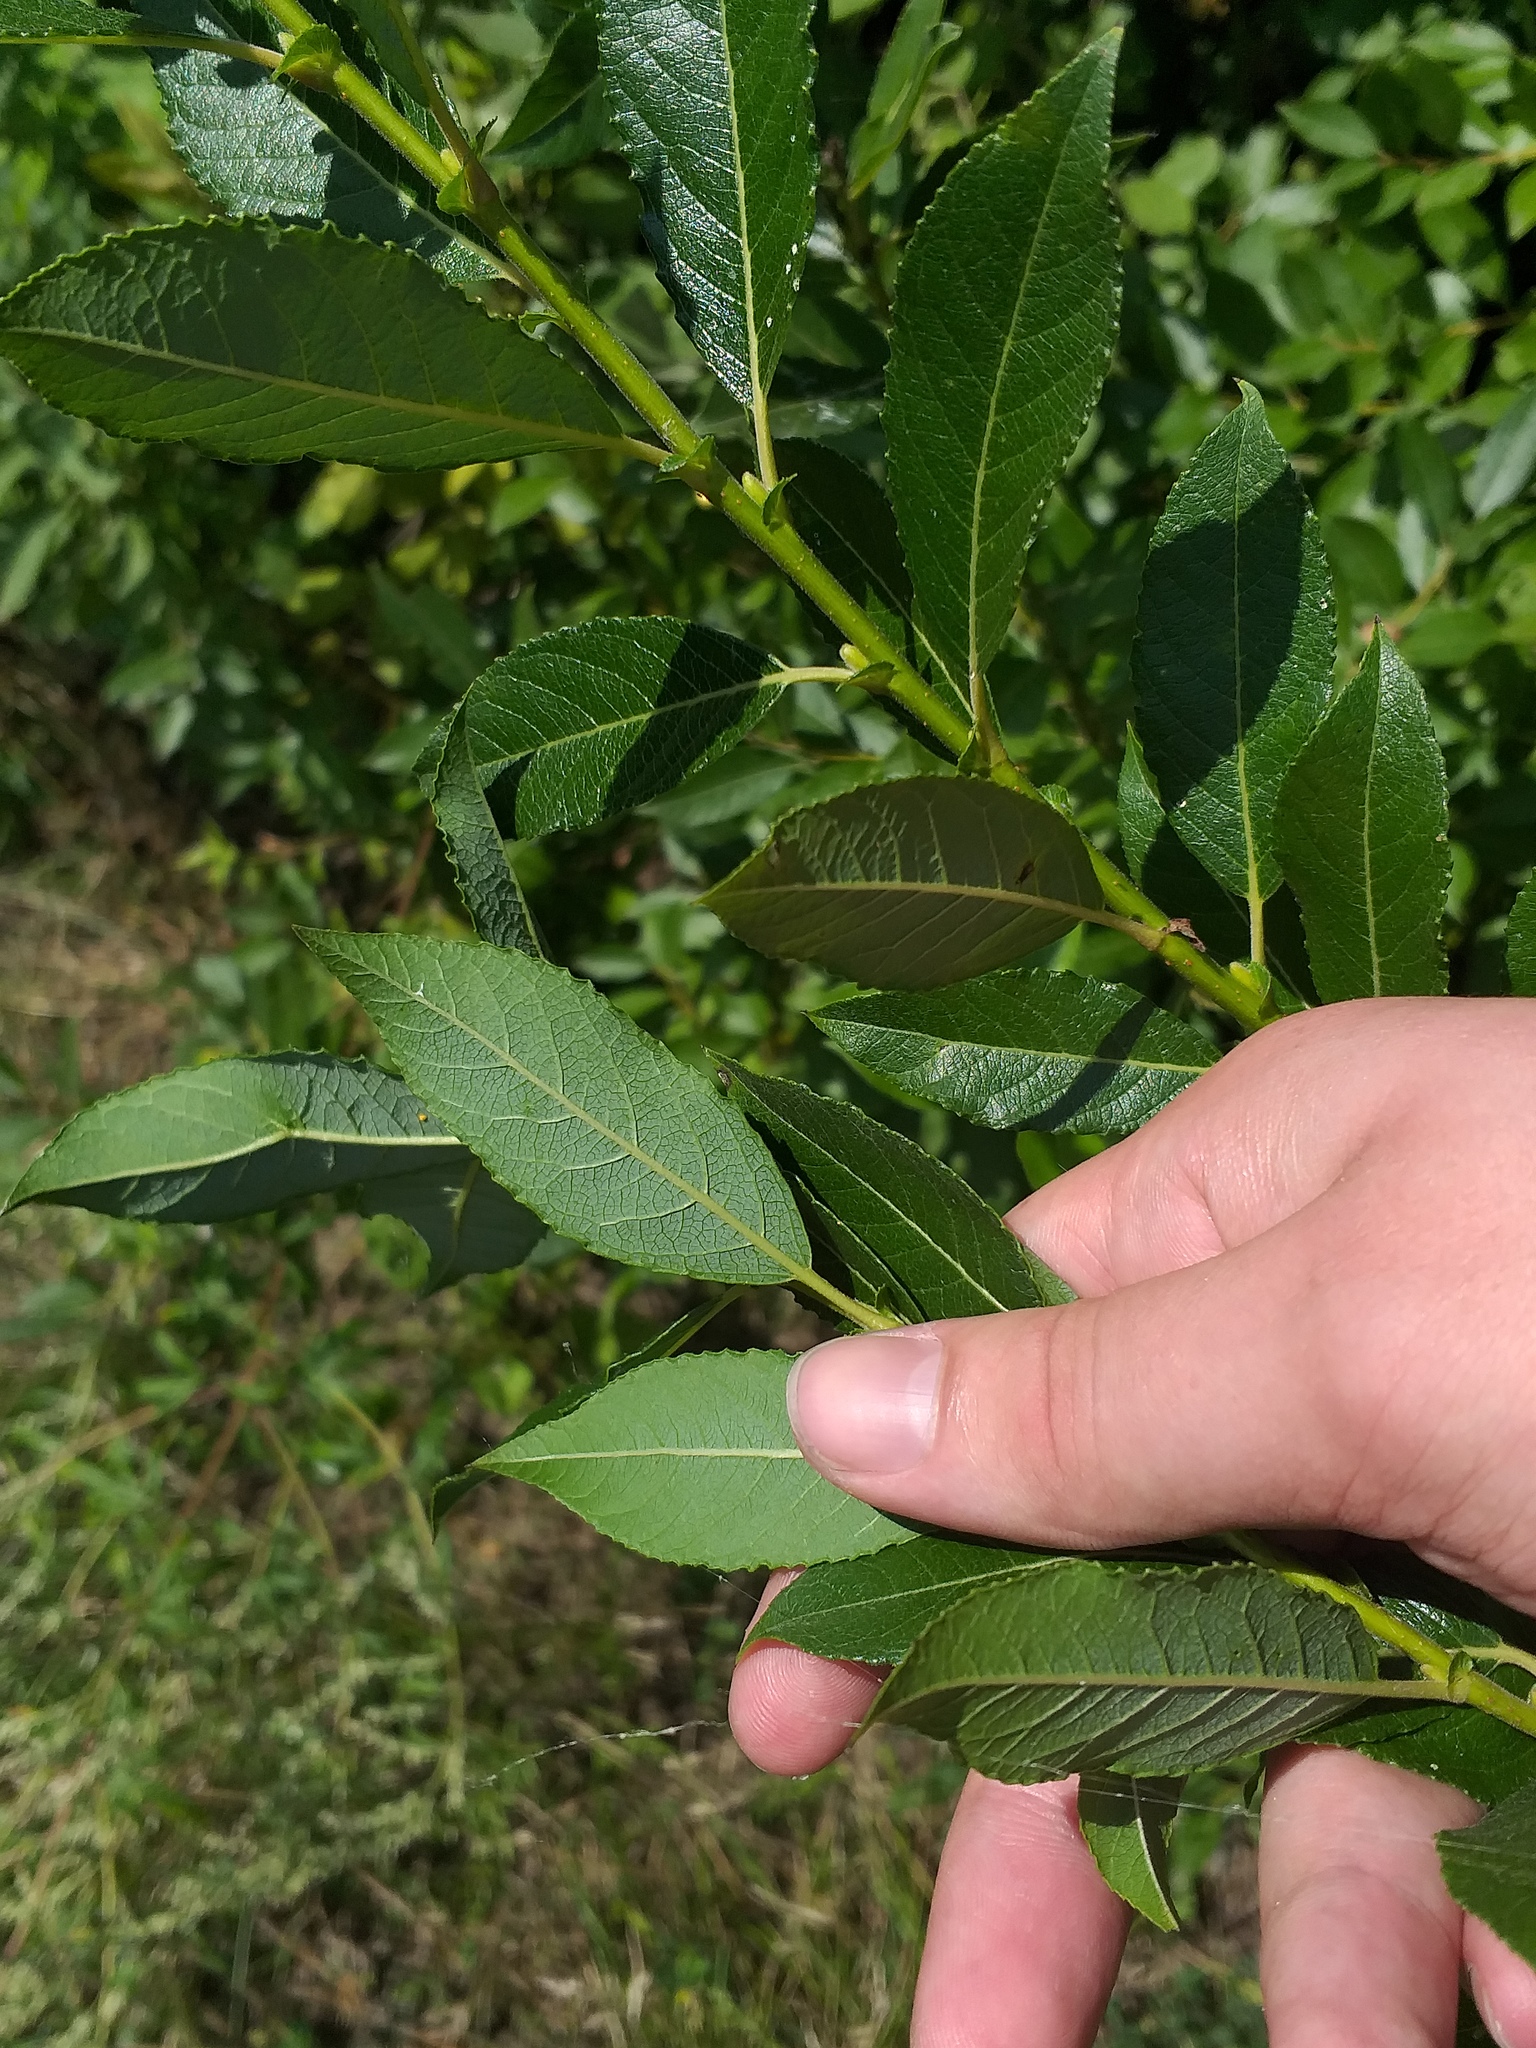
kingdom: Plantae
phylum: Tracheophyta
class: Magnoliopsida
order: Malpighiales
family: Salicaceae
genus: Salix
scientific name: Salix myrsinifolia
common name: Dark-leaved willow
